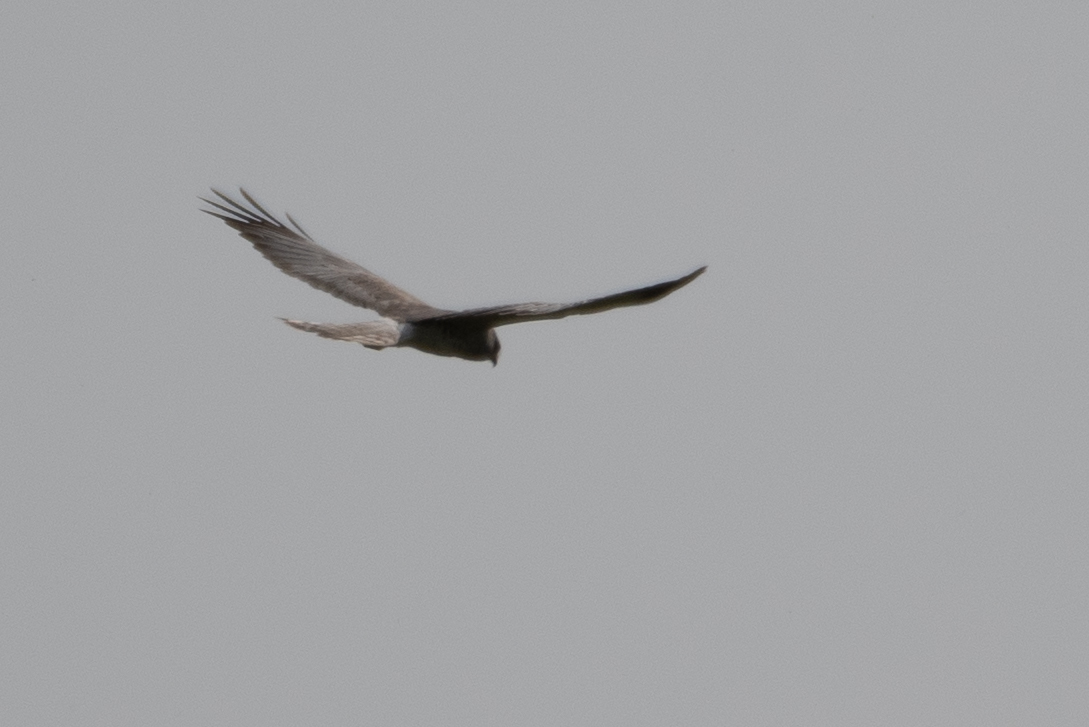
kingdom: Animalia
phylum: Chordata
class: Aves
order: Accipitriformes
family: Accipitridae
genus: Circus
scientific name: Circus cyaneus
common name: Hen harrier
